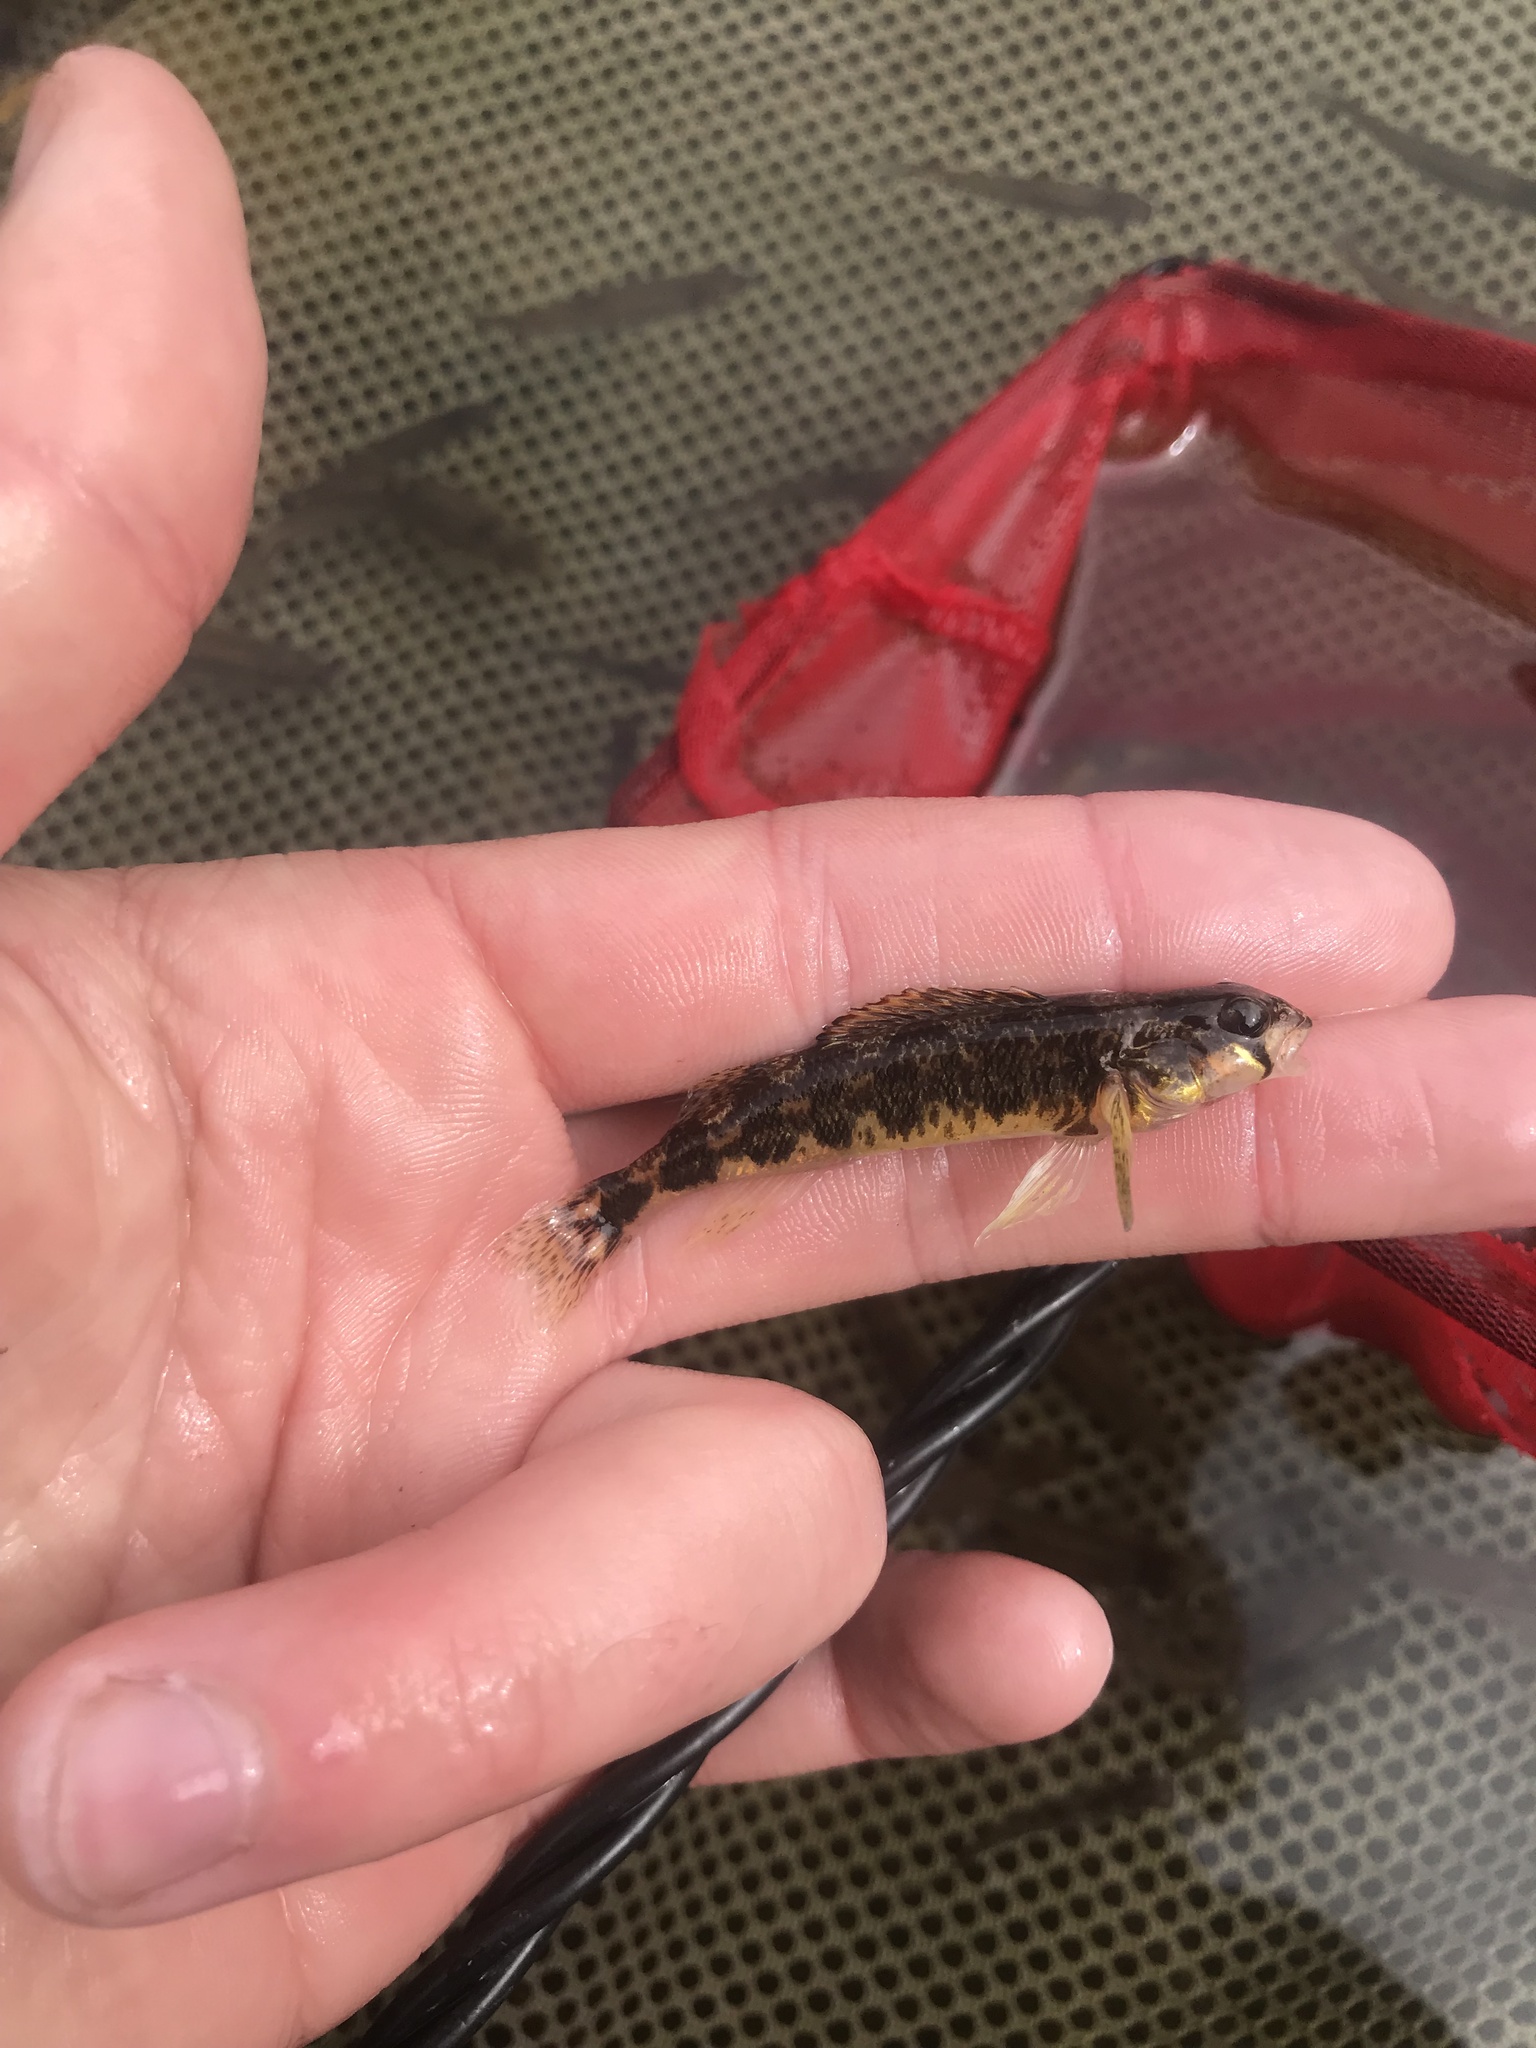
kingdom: Animalia
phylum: Chordata
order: Perciformes
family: Percidae
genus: Etheostoma
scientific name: Etheostoma zonale
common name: Banded darter
